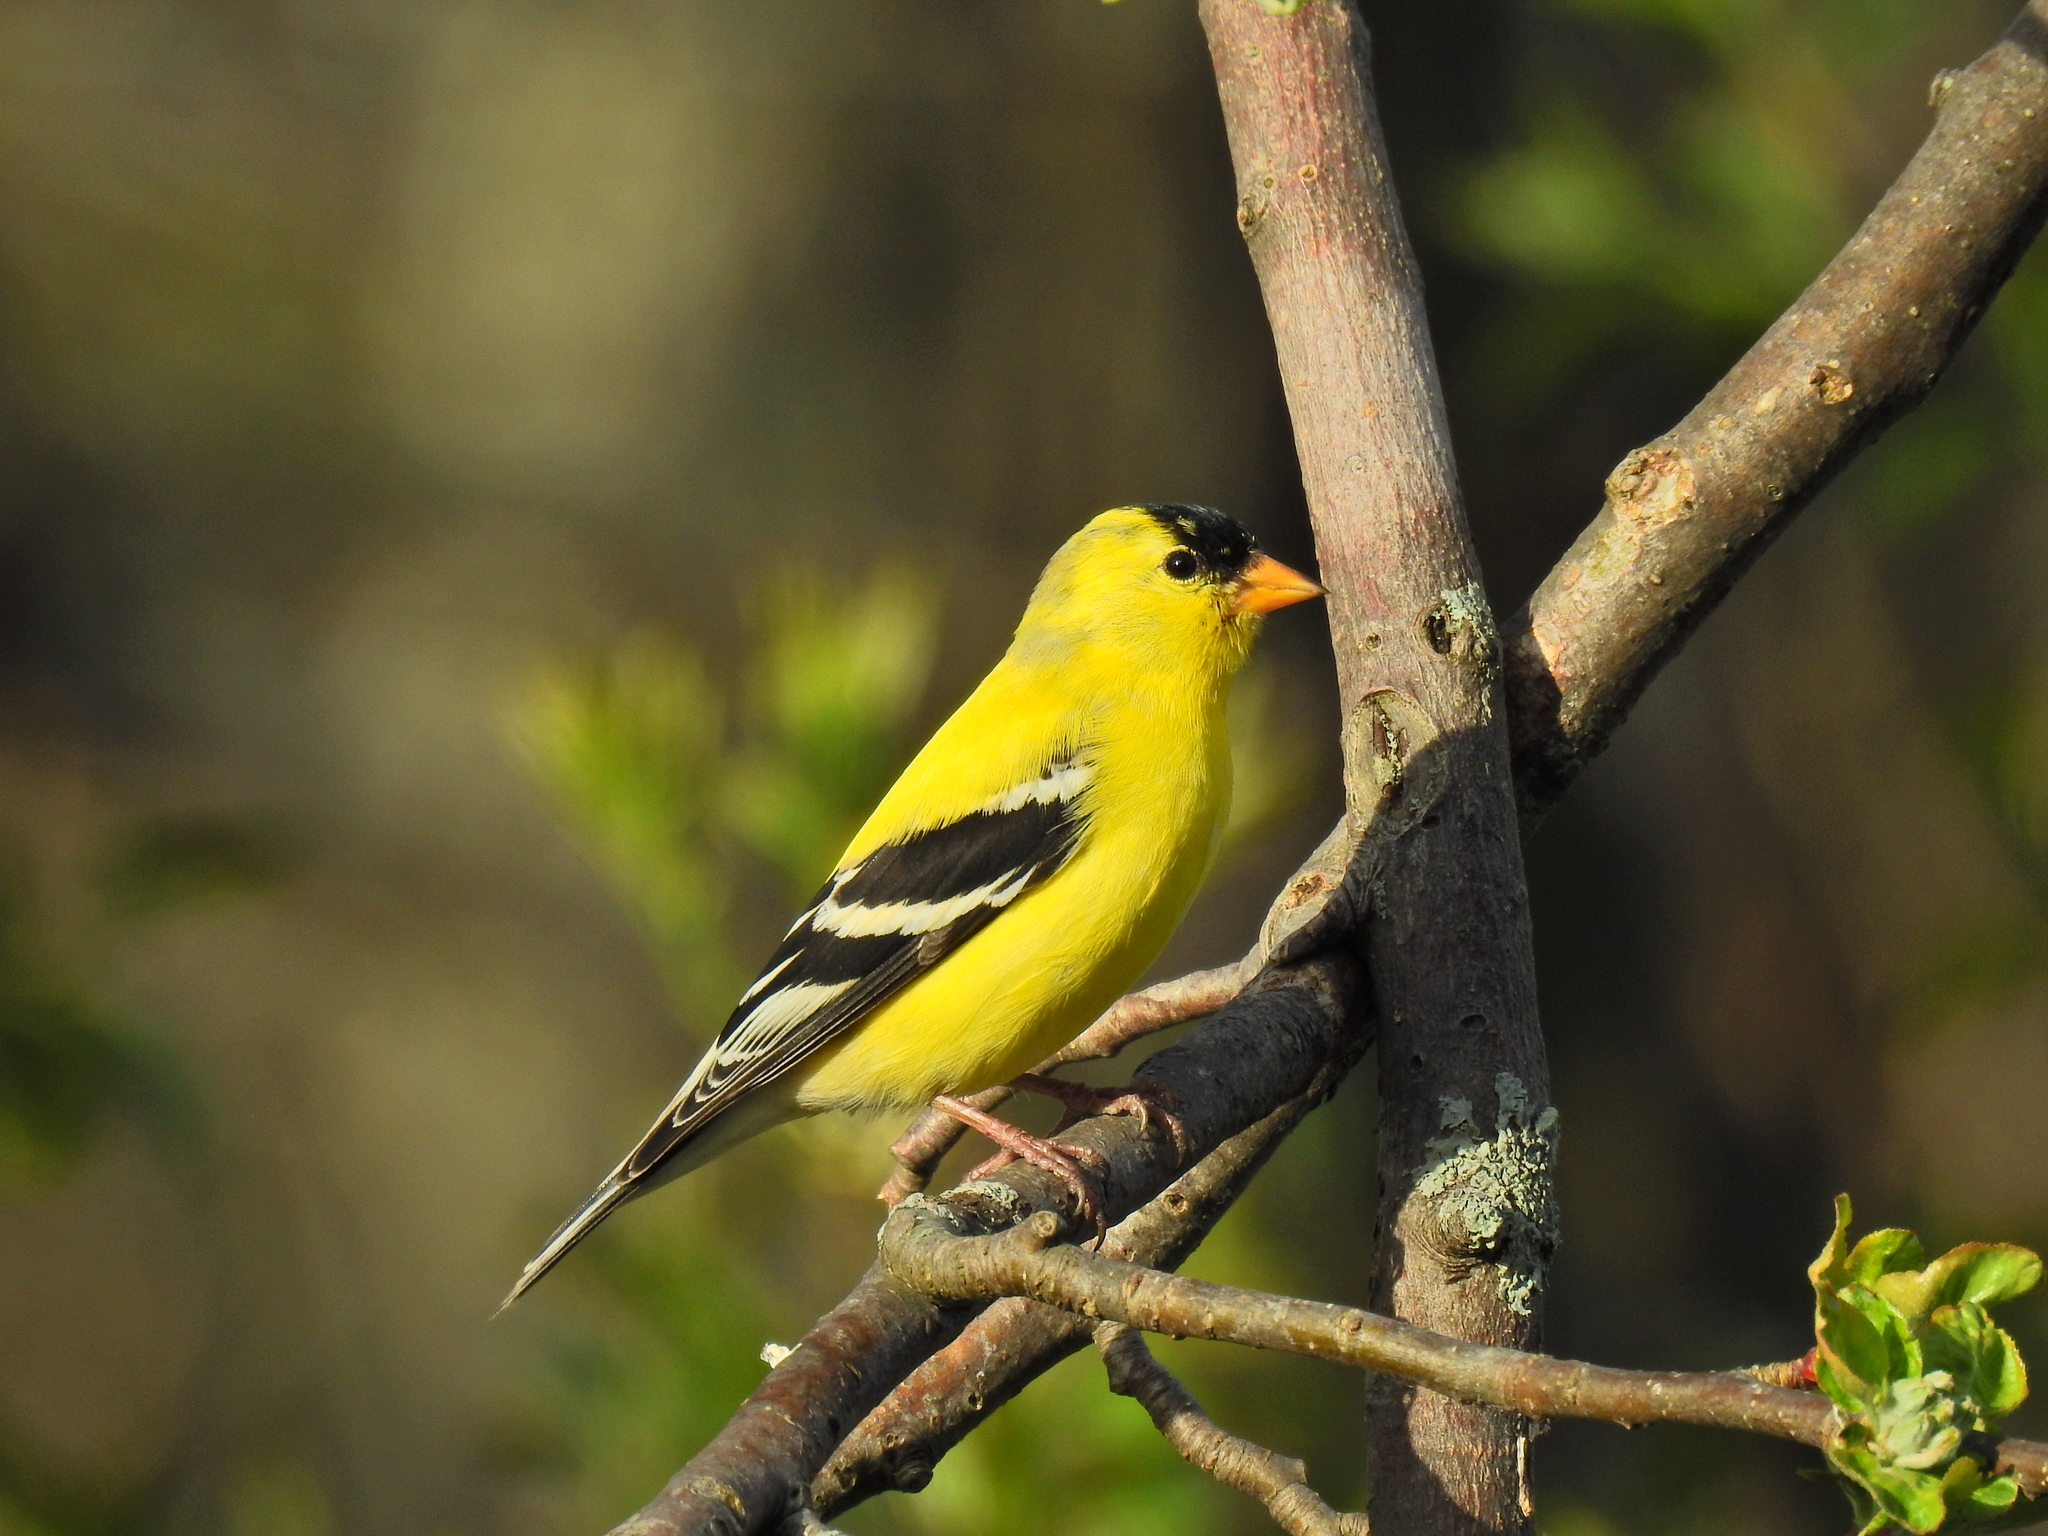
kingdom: Animalia
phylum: Chordata
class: Aves
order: Passeriformes
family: Fringillidae
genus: Spinus
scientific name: Spinus tristis
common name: American goldfinch
